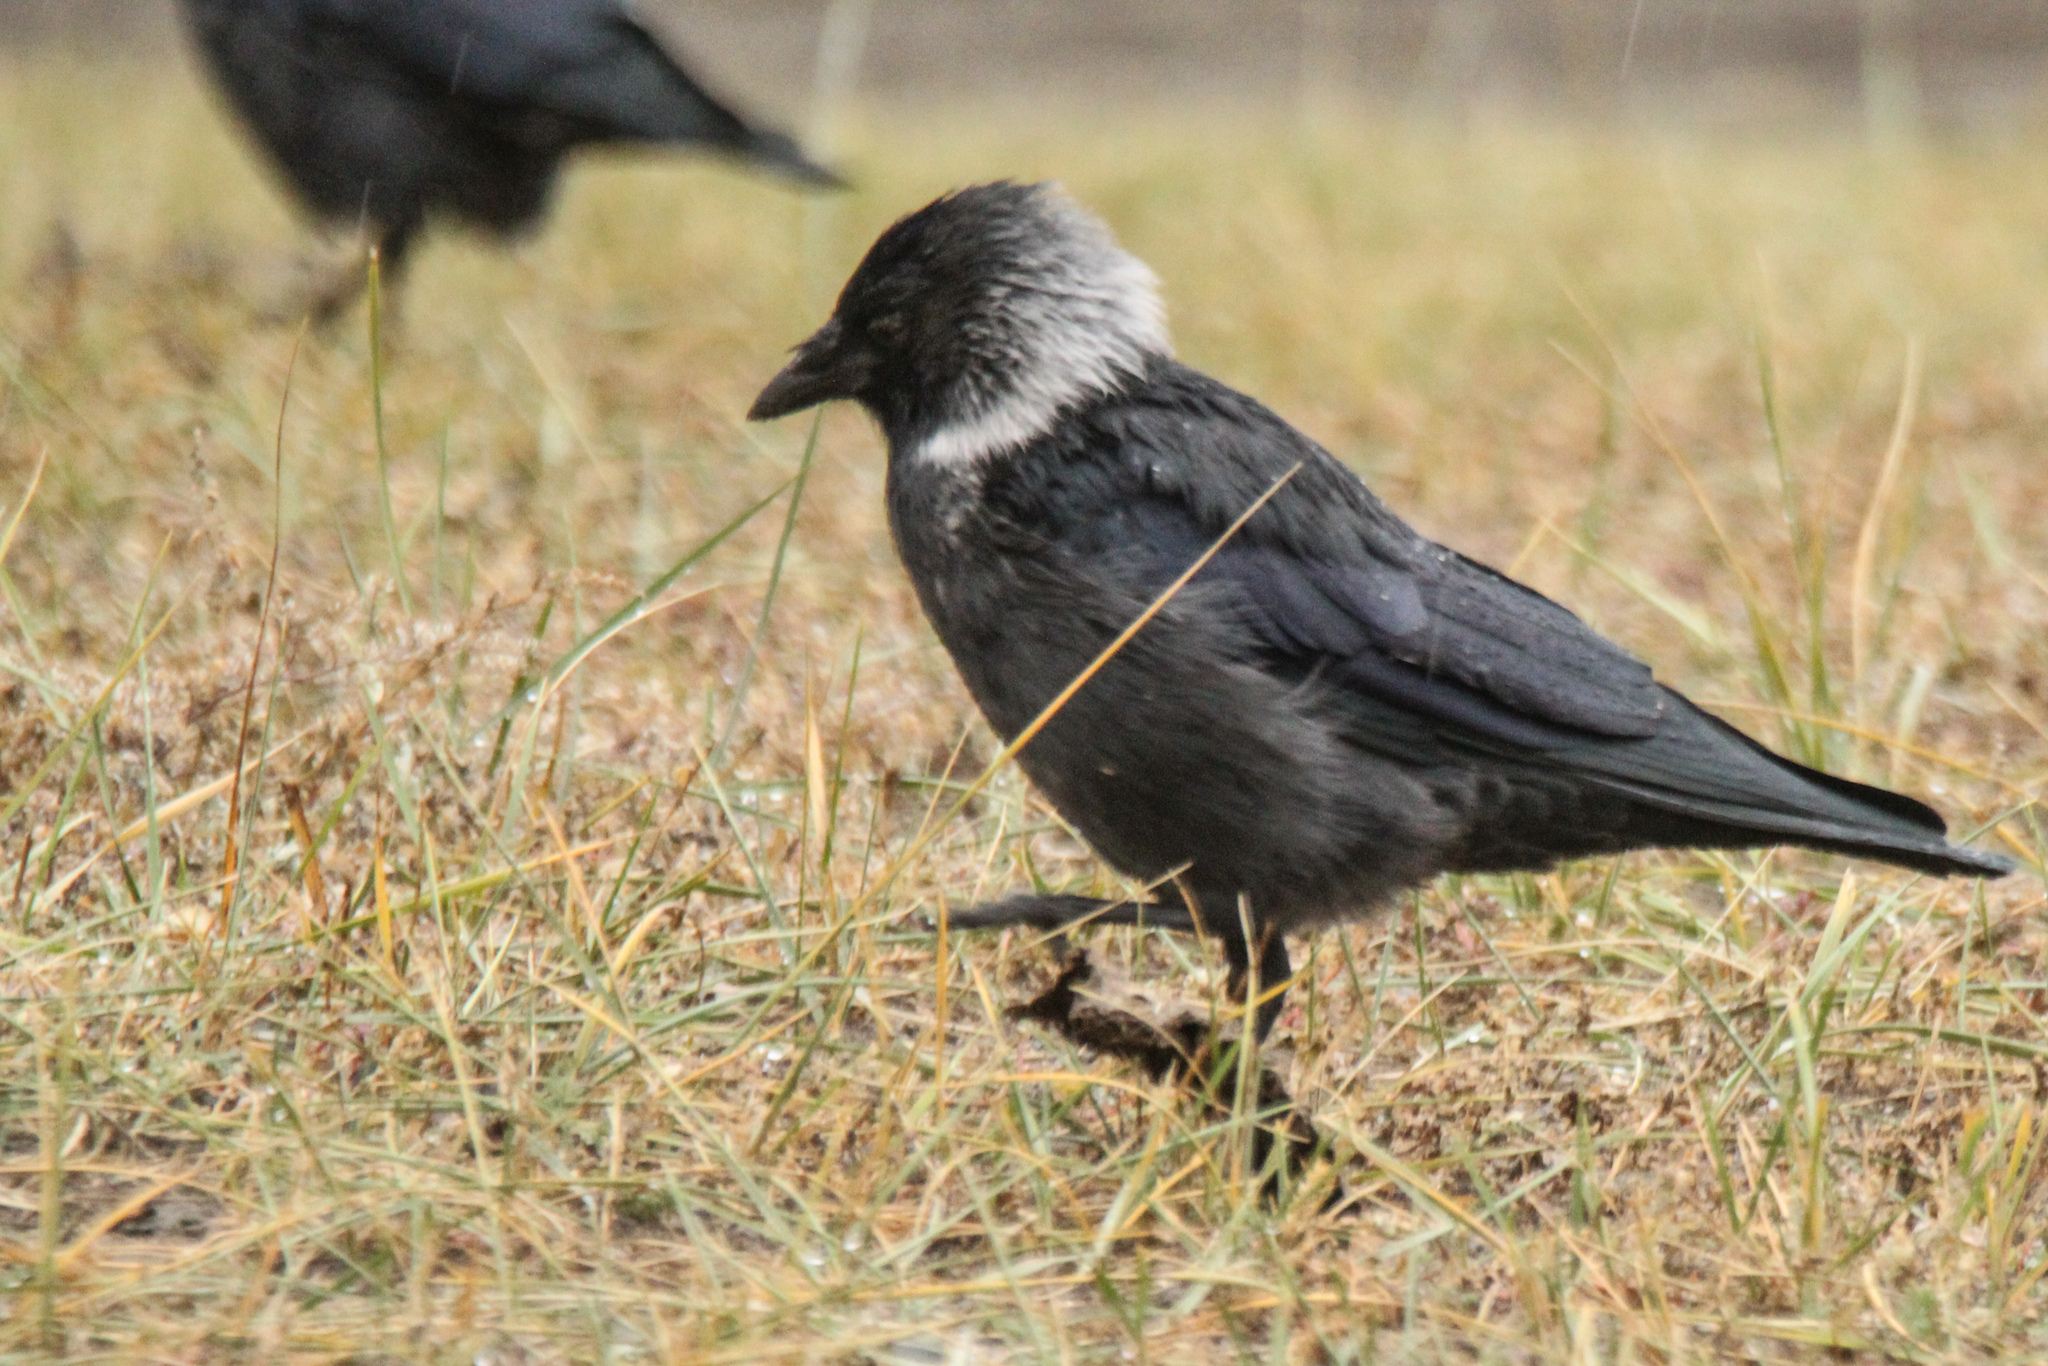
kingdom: Animalia
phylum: Chordata
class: Aves
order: Passeriformes
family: Corvidae
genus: Coloeus
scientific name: Coloeus dauuricus
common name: Daurian jackdaw
